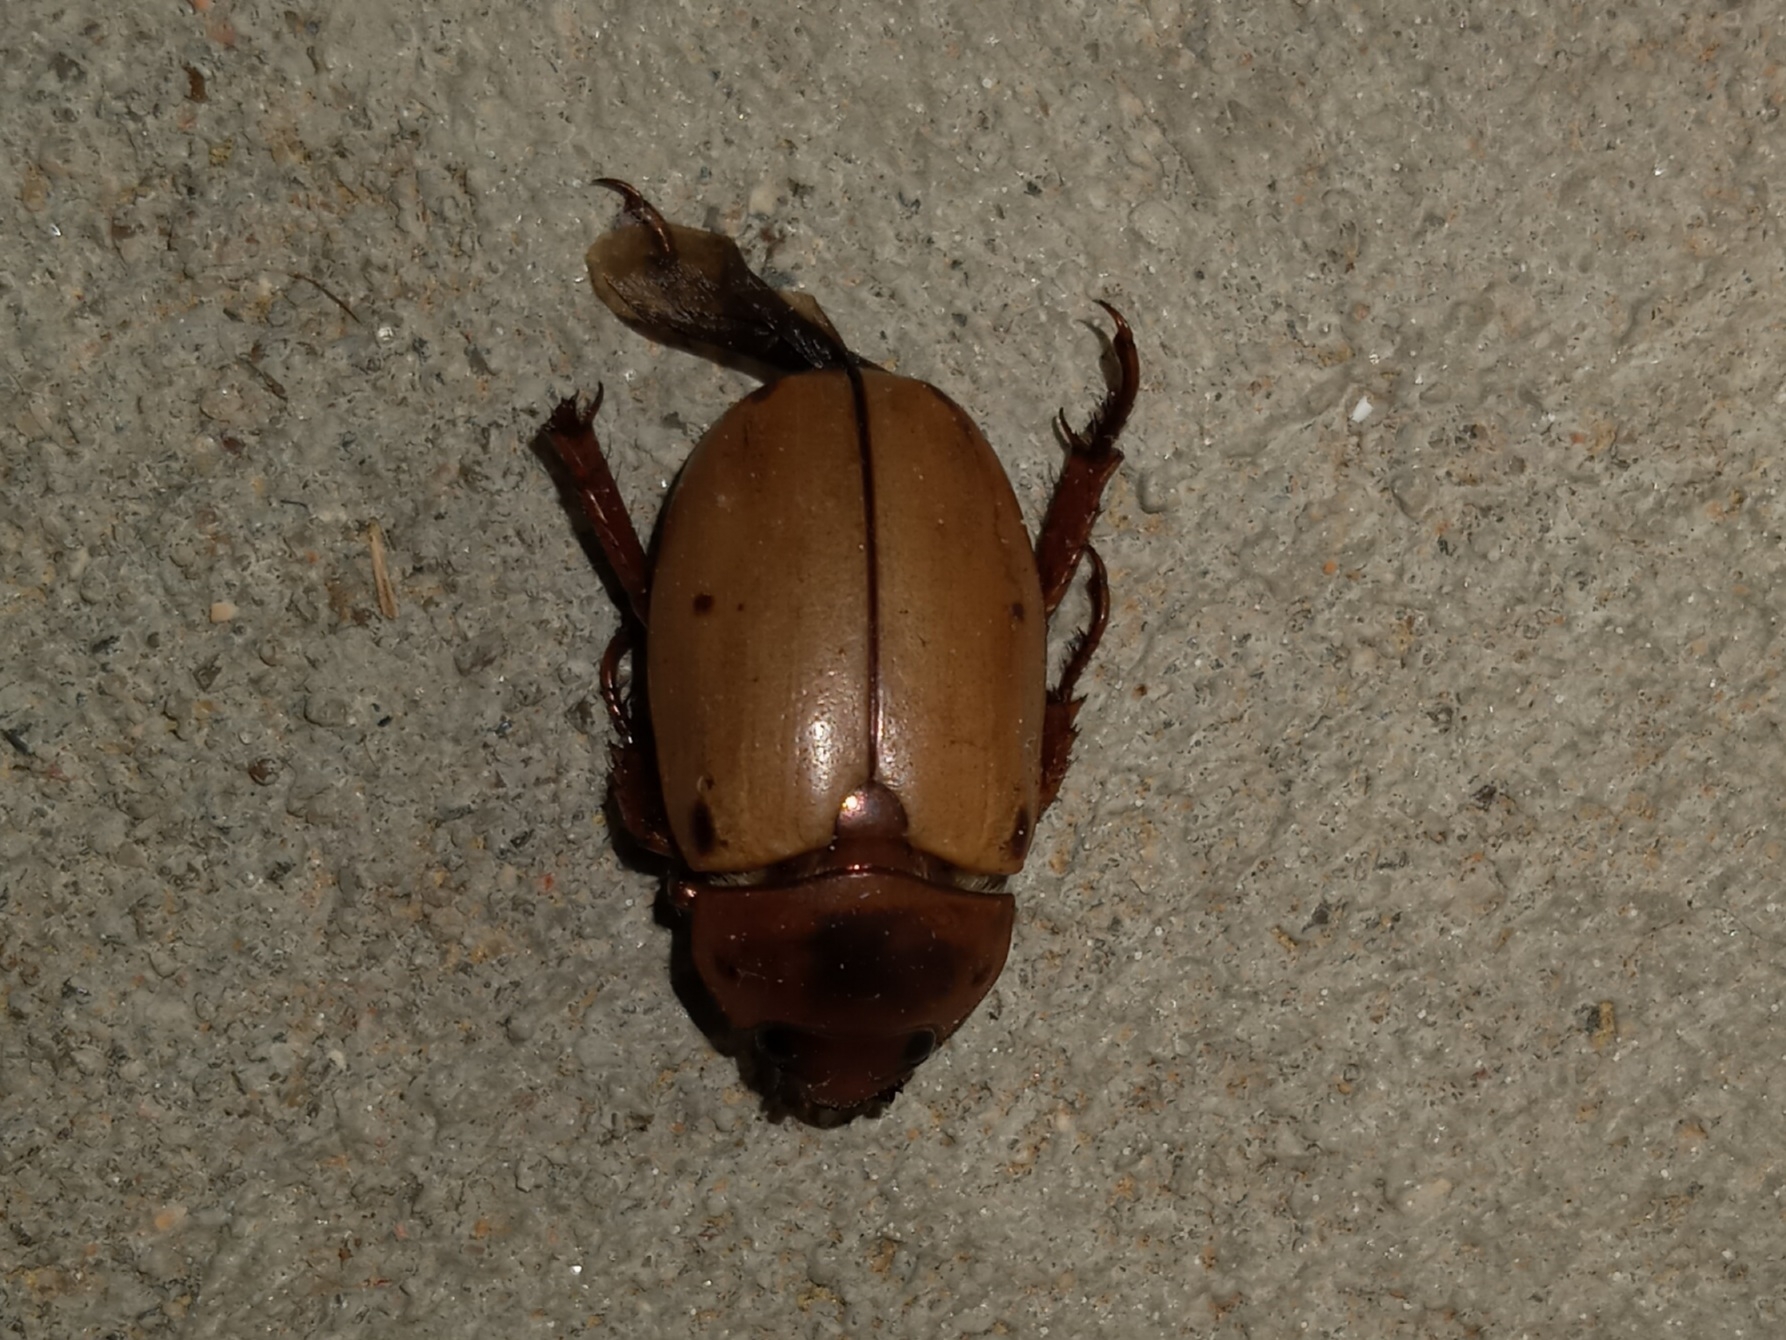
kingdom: Animalia
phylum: Arthropoda
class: Insecta
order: Coleoptera
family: Scarabaeidae
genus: Pelidnota
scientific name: Pelidnota punctata
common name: Grapevine beetle
